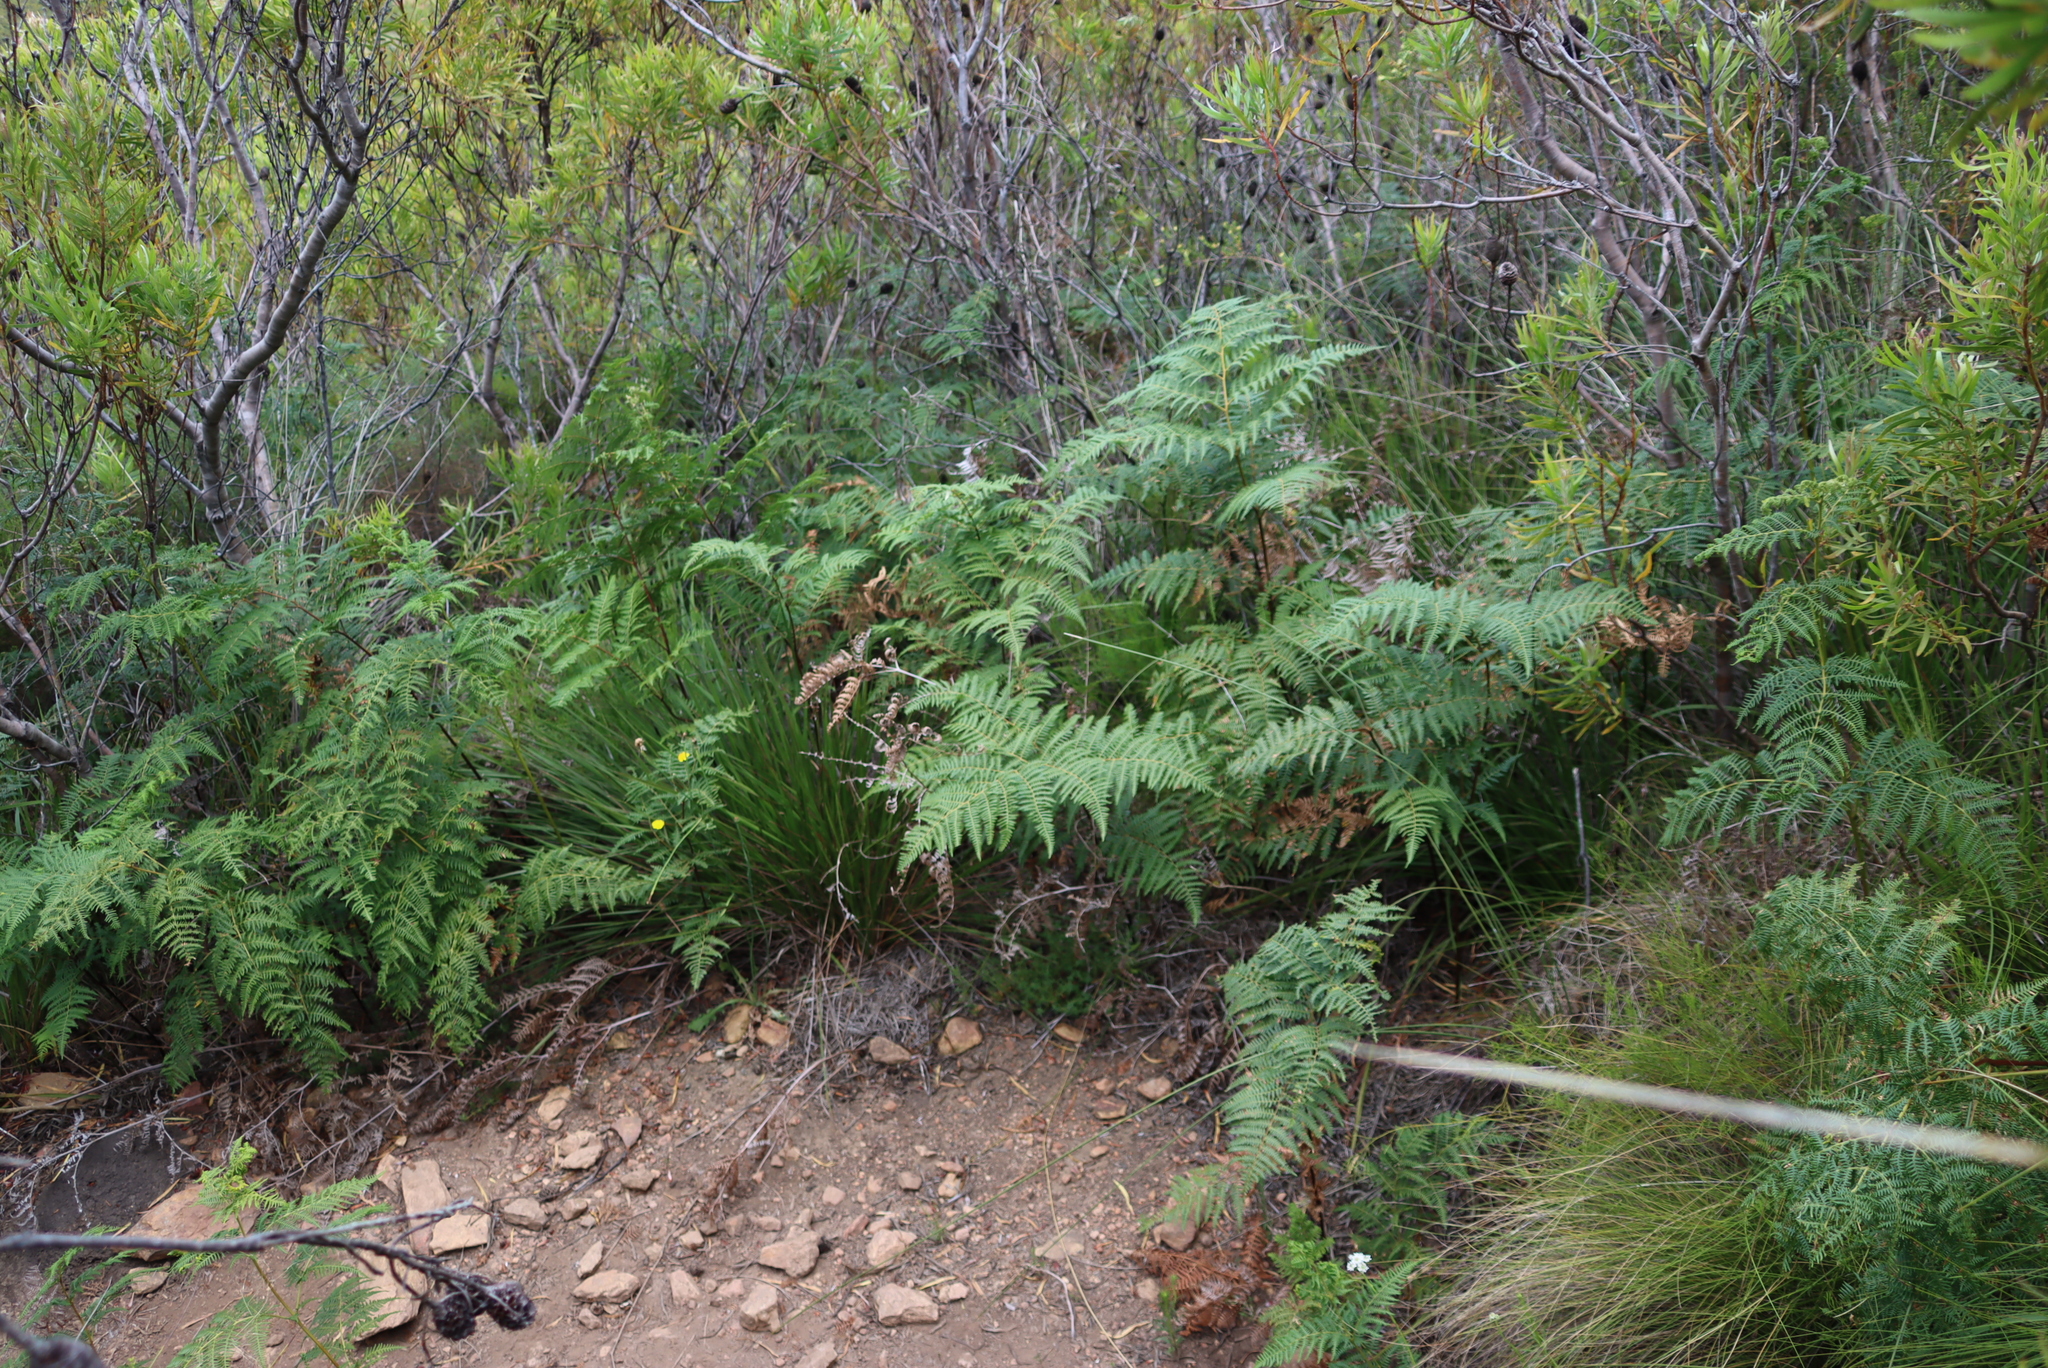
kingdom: Plantae
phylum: Tracheophyta
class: Polypodiopsida
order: Polypodiales
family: Dennstaedtiaceae
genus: Pteridium
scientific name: Pteridium aquilinum
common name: Bracken
